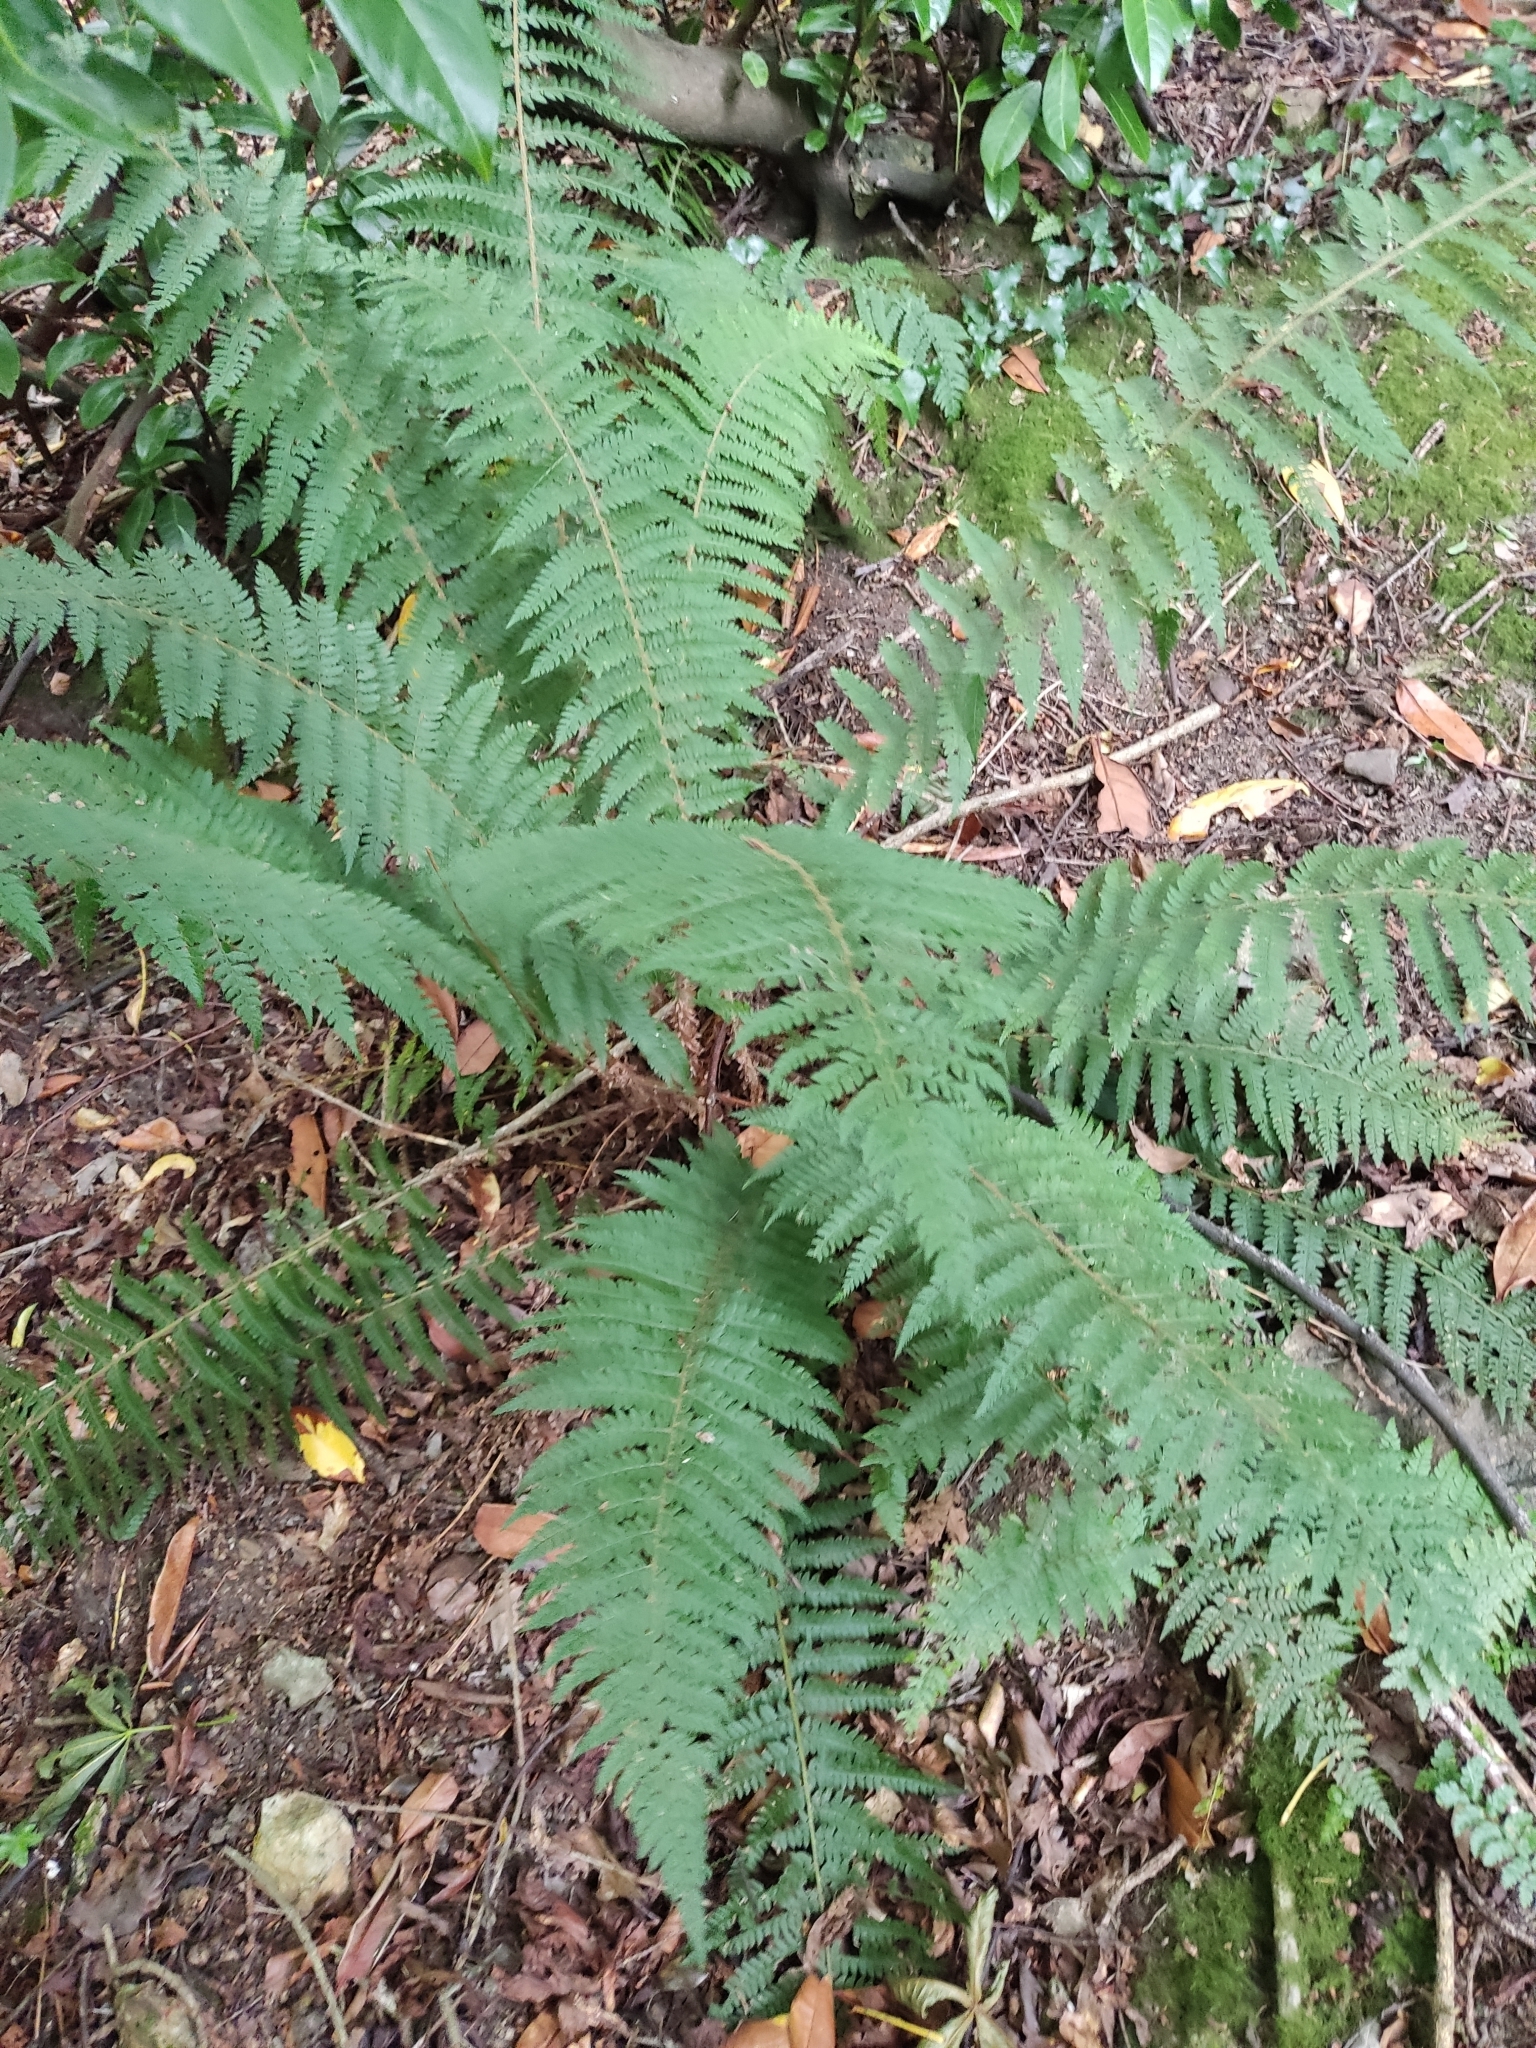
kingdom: Plantae
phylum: Tracheophyta
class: Polypodiopsida
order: Polypodiales
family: Dryopteridaceae
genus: Polystichum
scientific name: Polystichum setiferum
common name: Soft shield-fern
